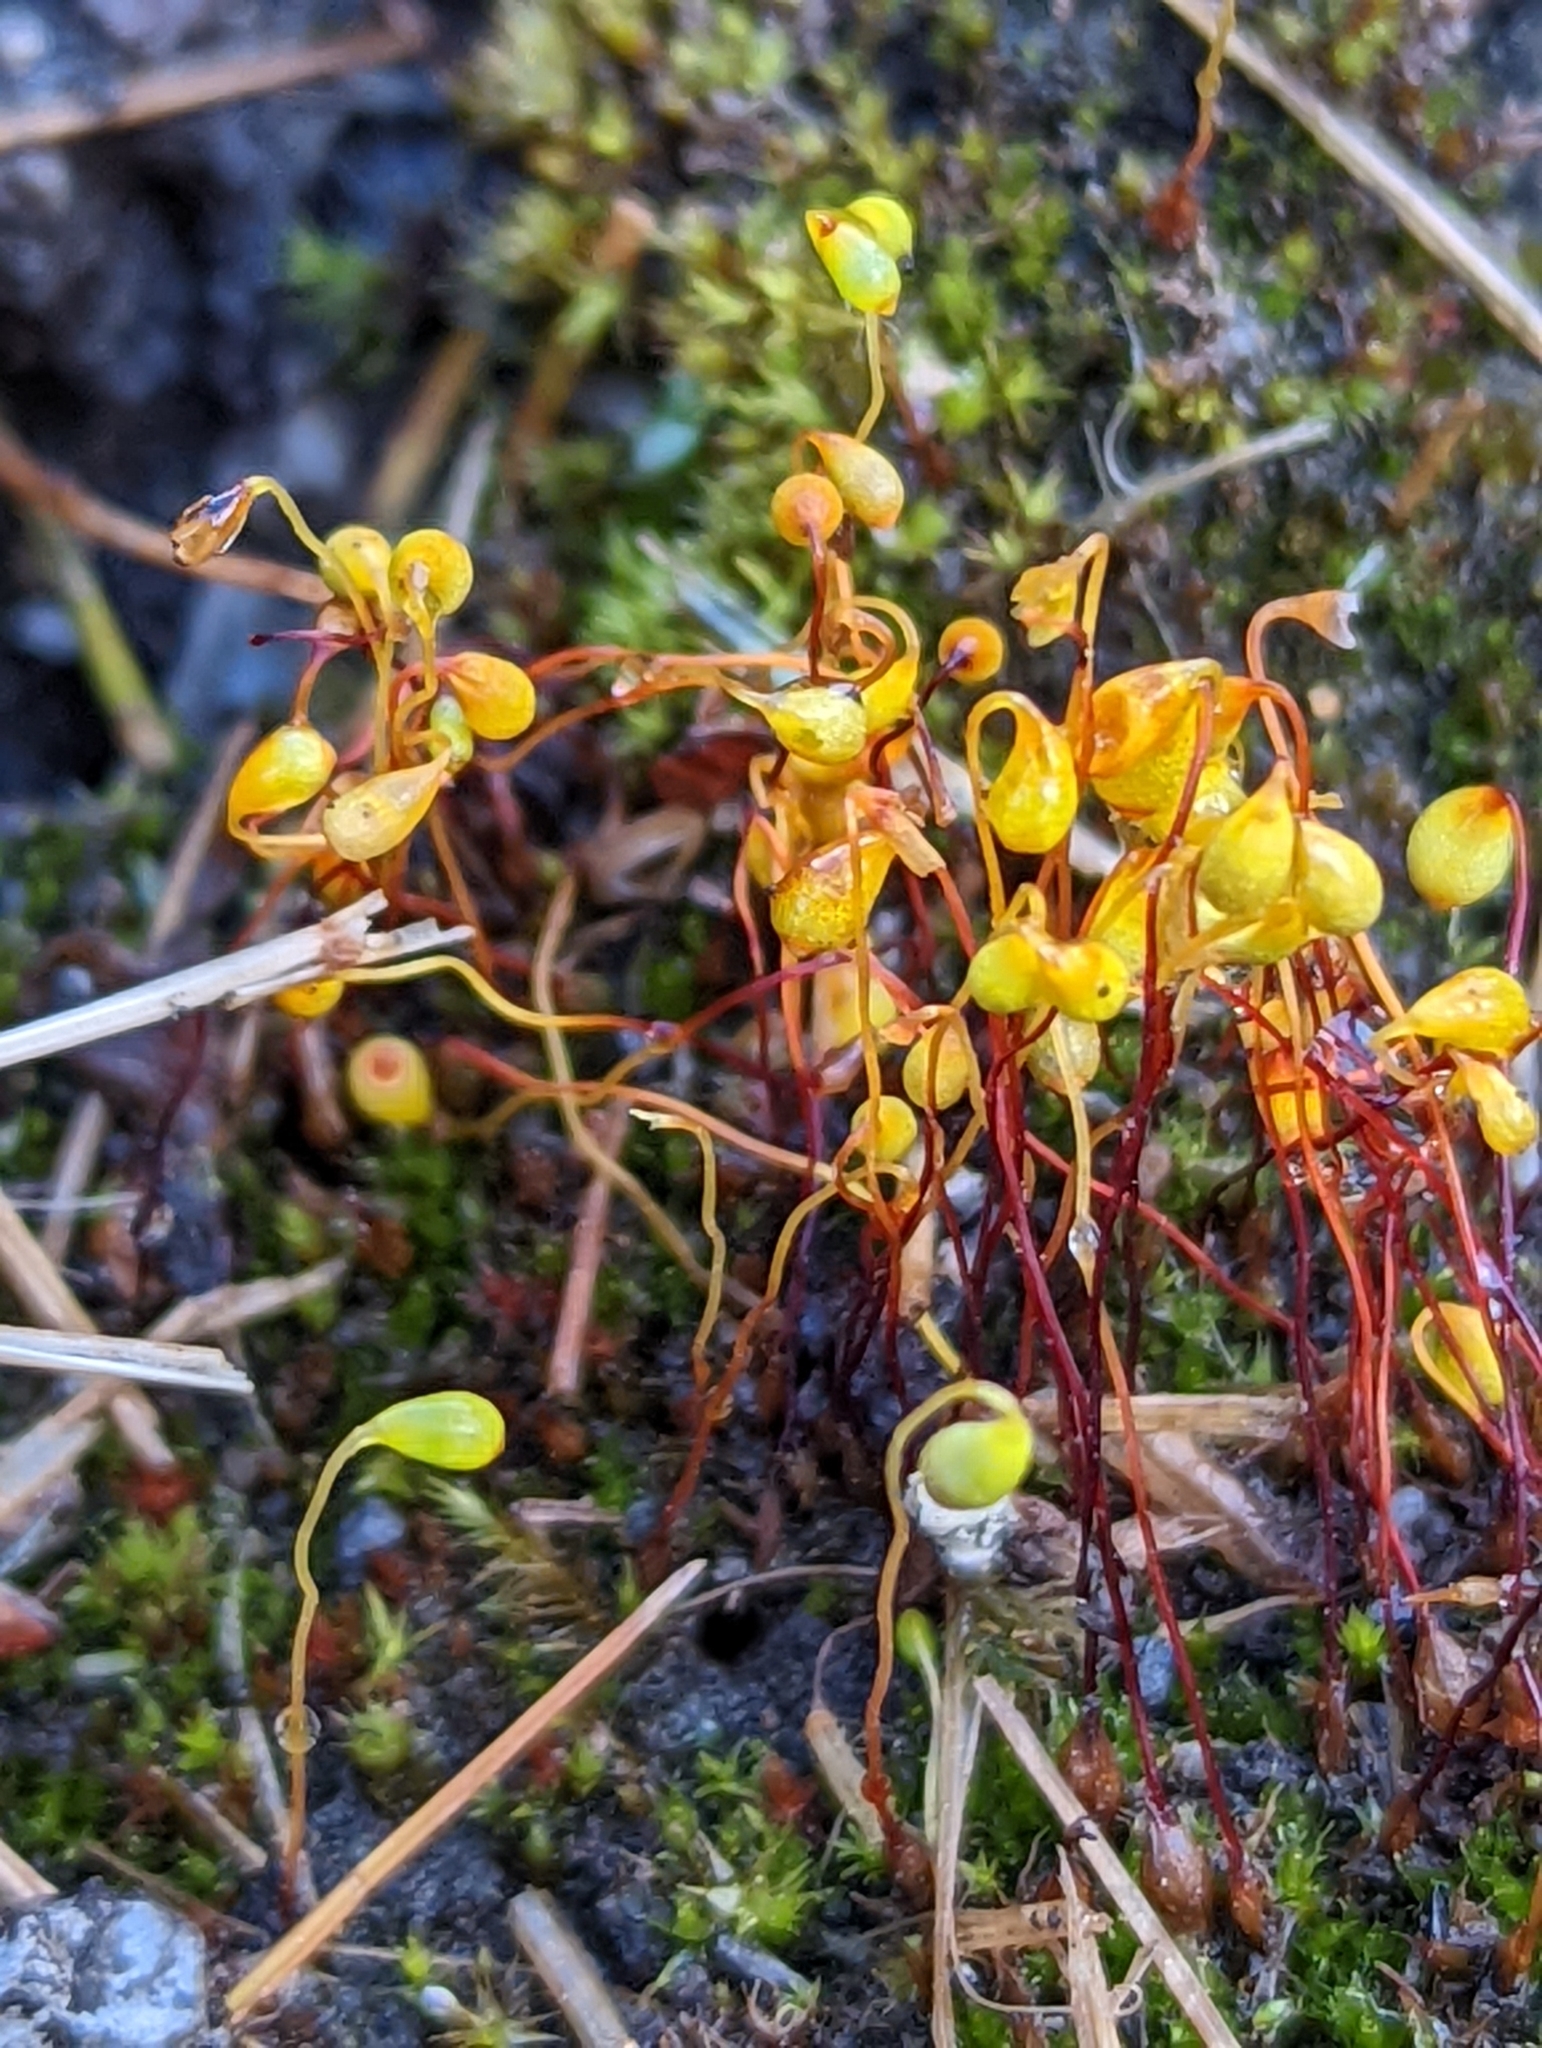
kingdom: Plantae
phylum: Bryophyta
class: Bryopsida
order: Funariales
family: Funariaceae
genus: Funaria
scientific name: Funaria hygrometrica
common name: Common cord moss
